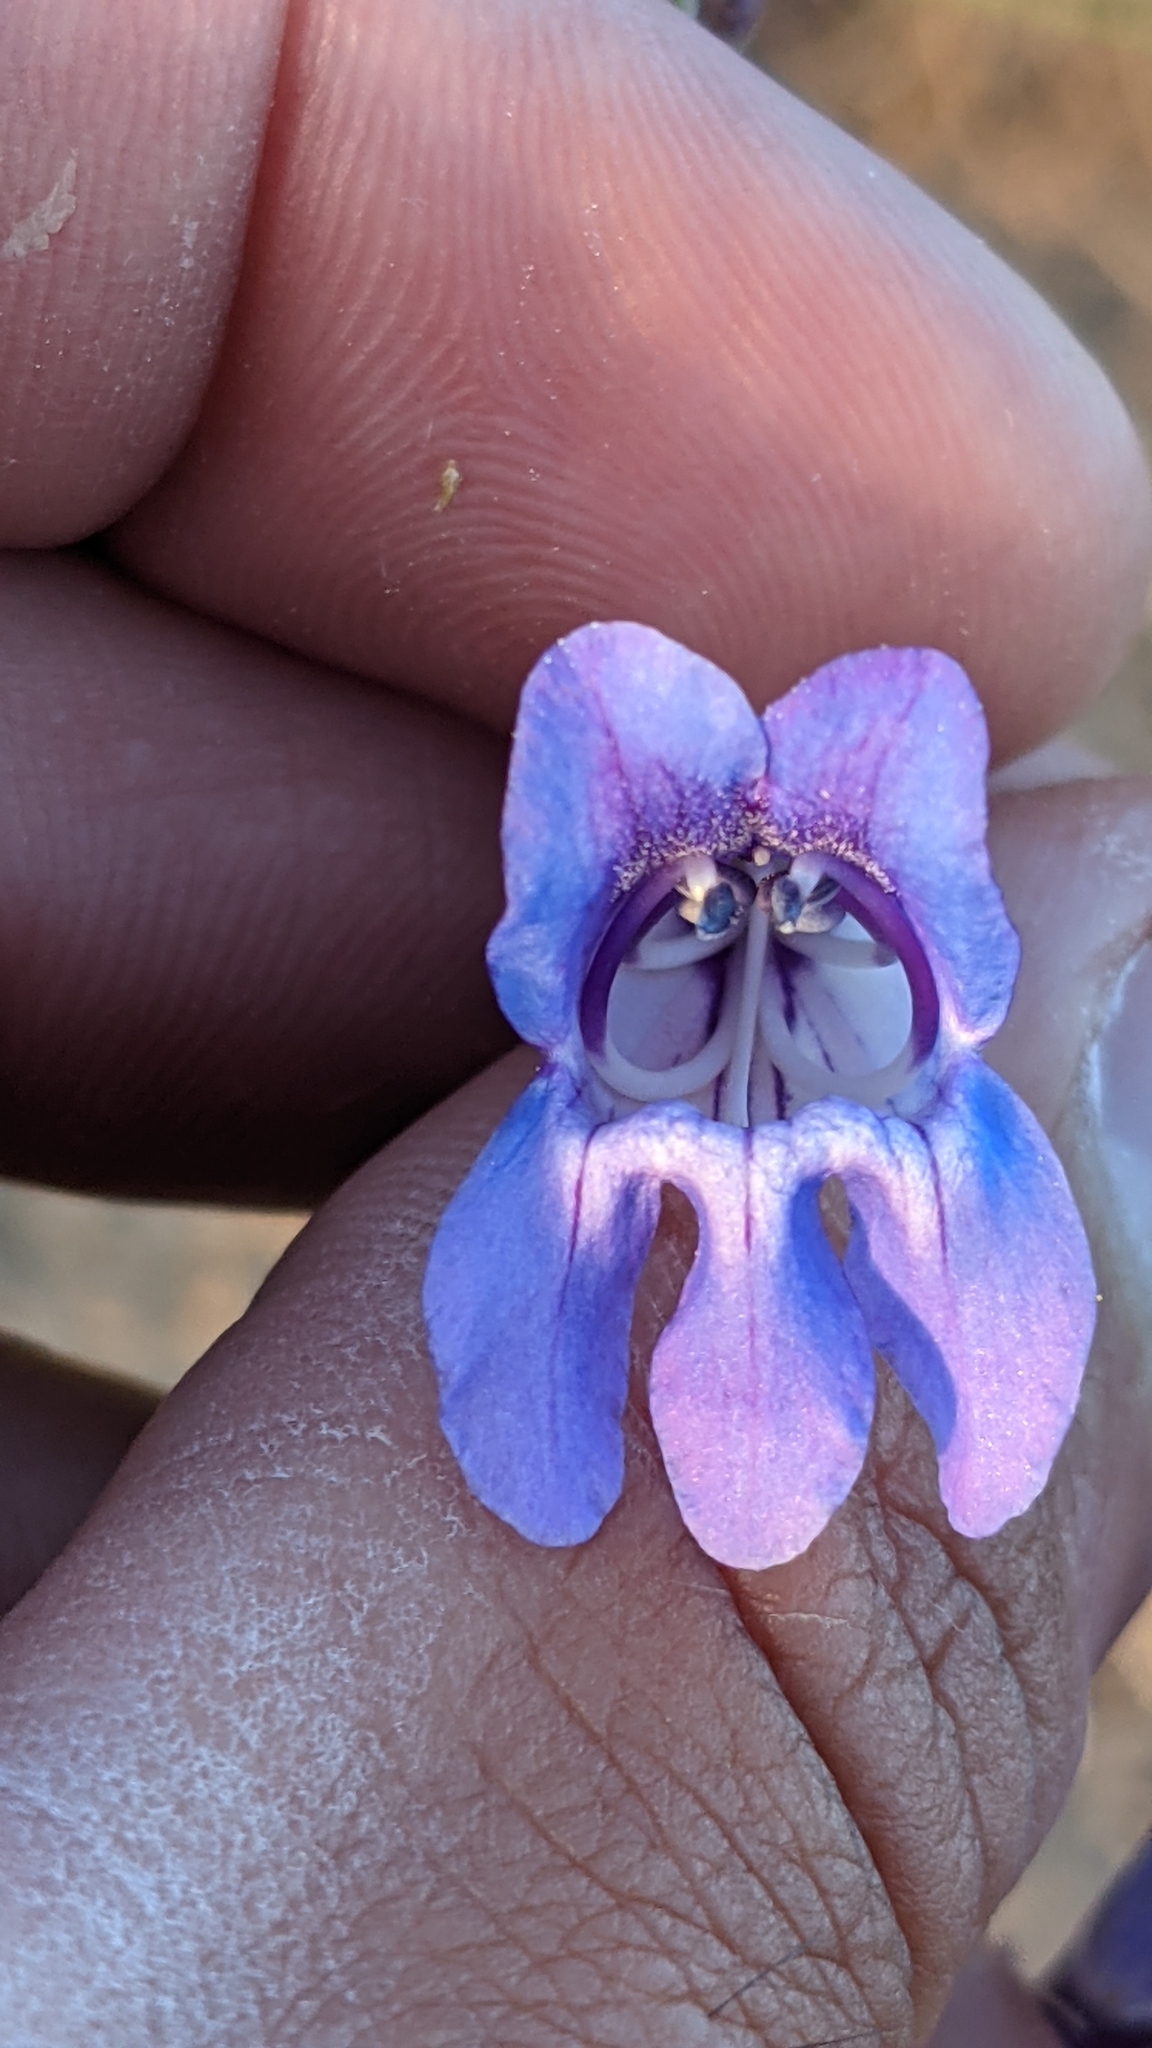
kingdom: Plantae
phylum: Tracheophyta
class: Magnoliopsida
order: Lamiales
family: Plantaginaceae
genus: Penstemon
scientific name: Penstemon leiophyllus
